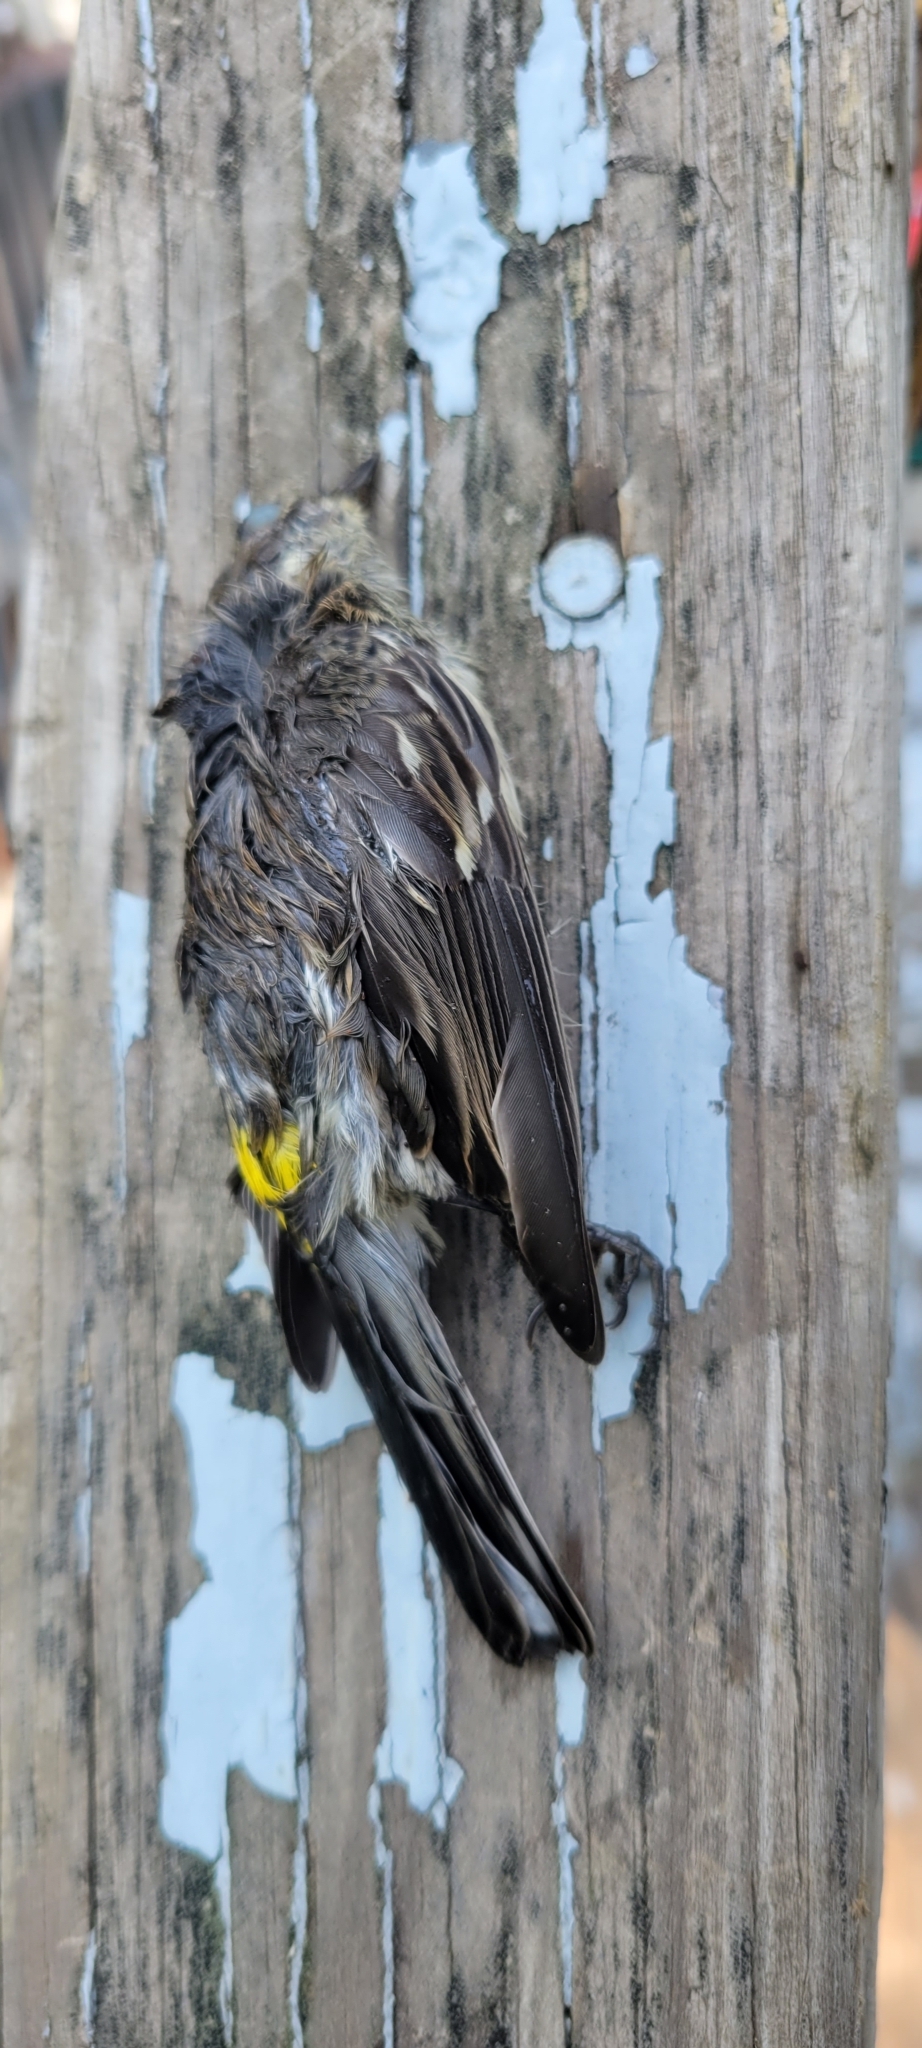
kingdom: Animalia
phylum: Chordata
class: Aves
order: Passeriformes
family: Parulidae
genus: Setophaga
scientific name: Setophaga coronata
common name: Myrtle warbler
